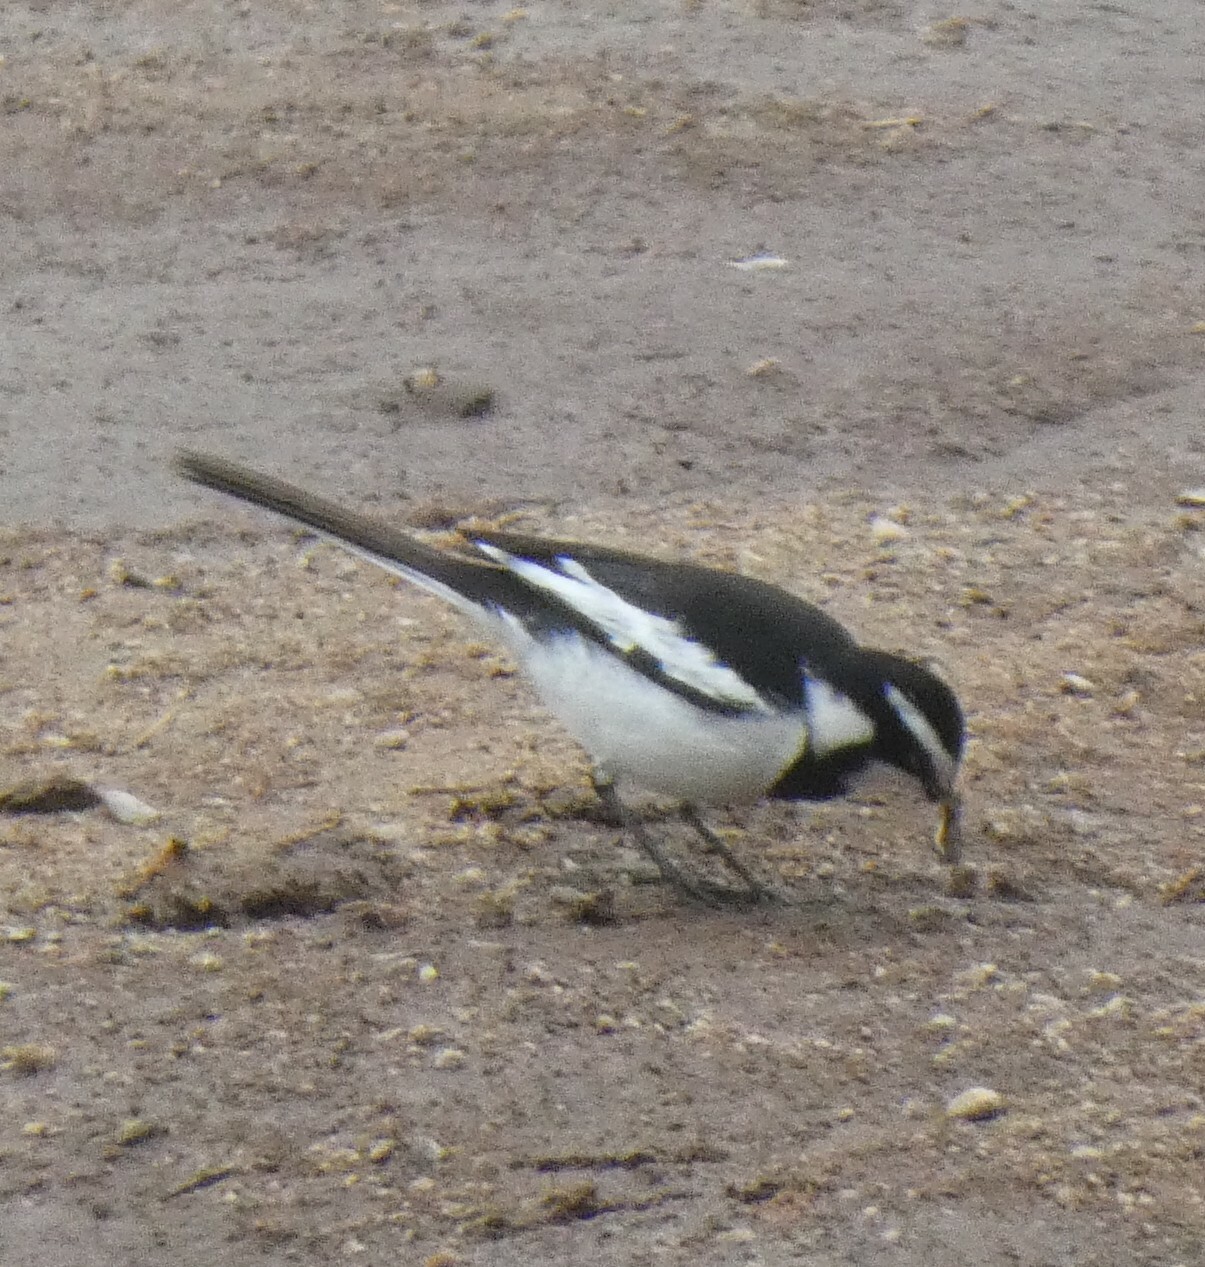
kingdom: Animalia
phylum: Chordata
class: Aves
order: Passeriformes
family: Motacillidae
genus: Motacilla
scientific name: Motacilla aguimp
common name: African pied wagtail
